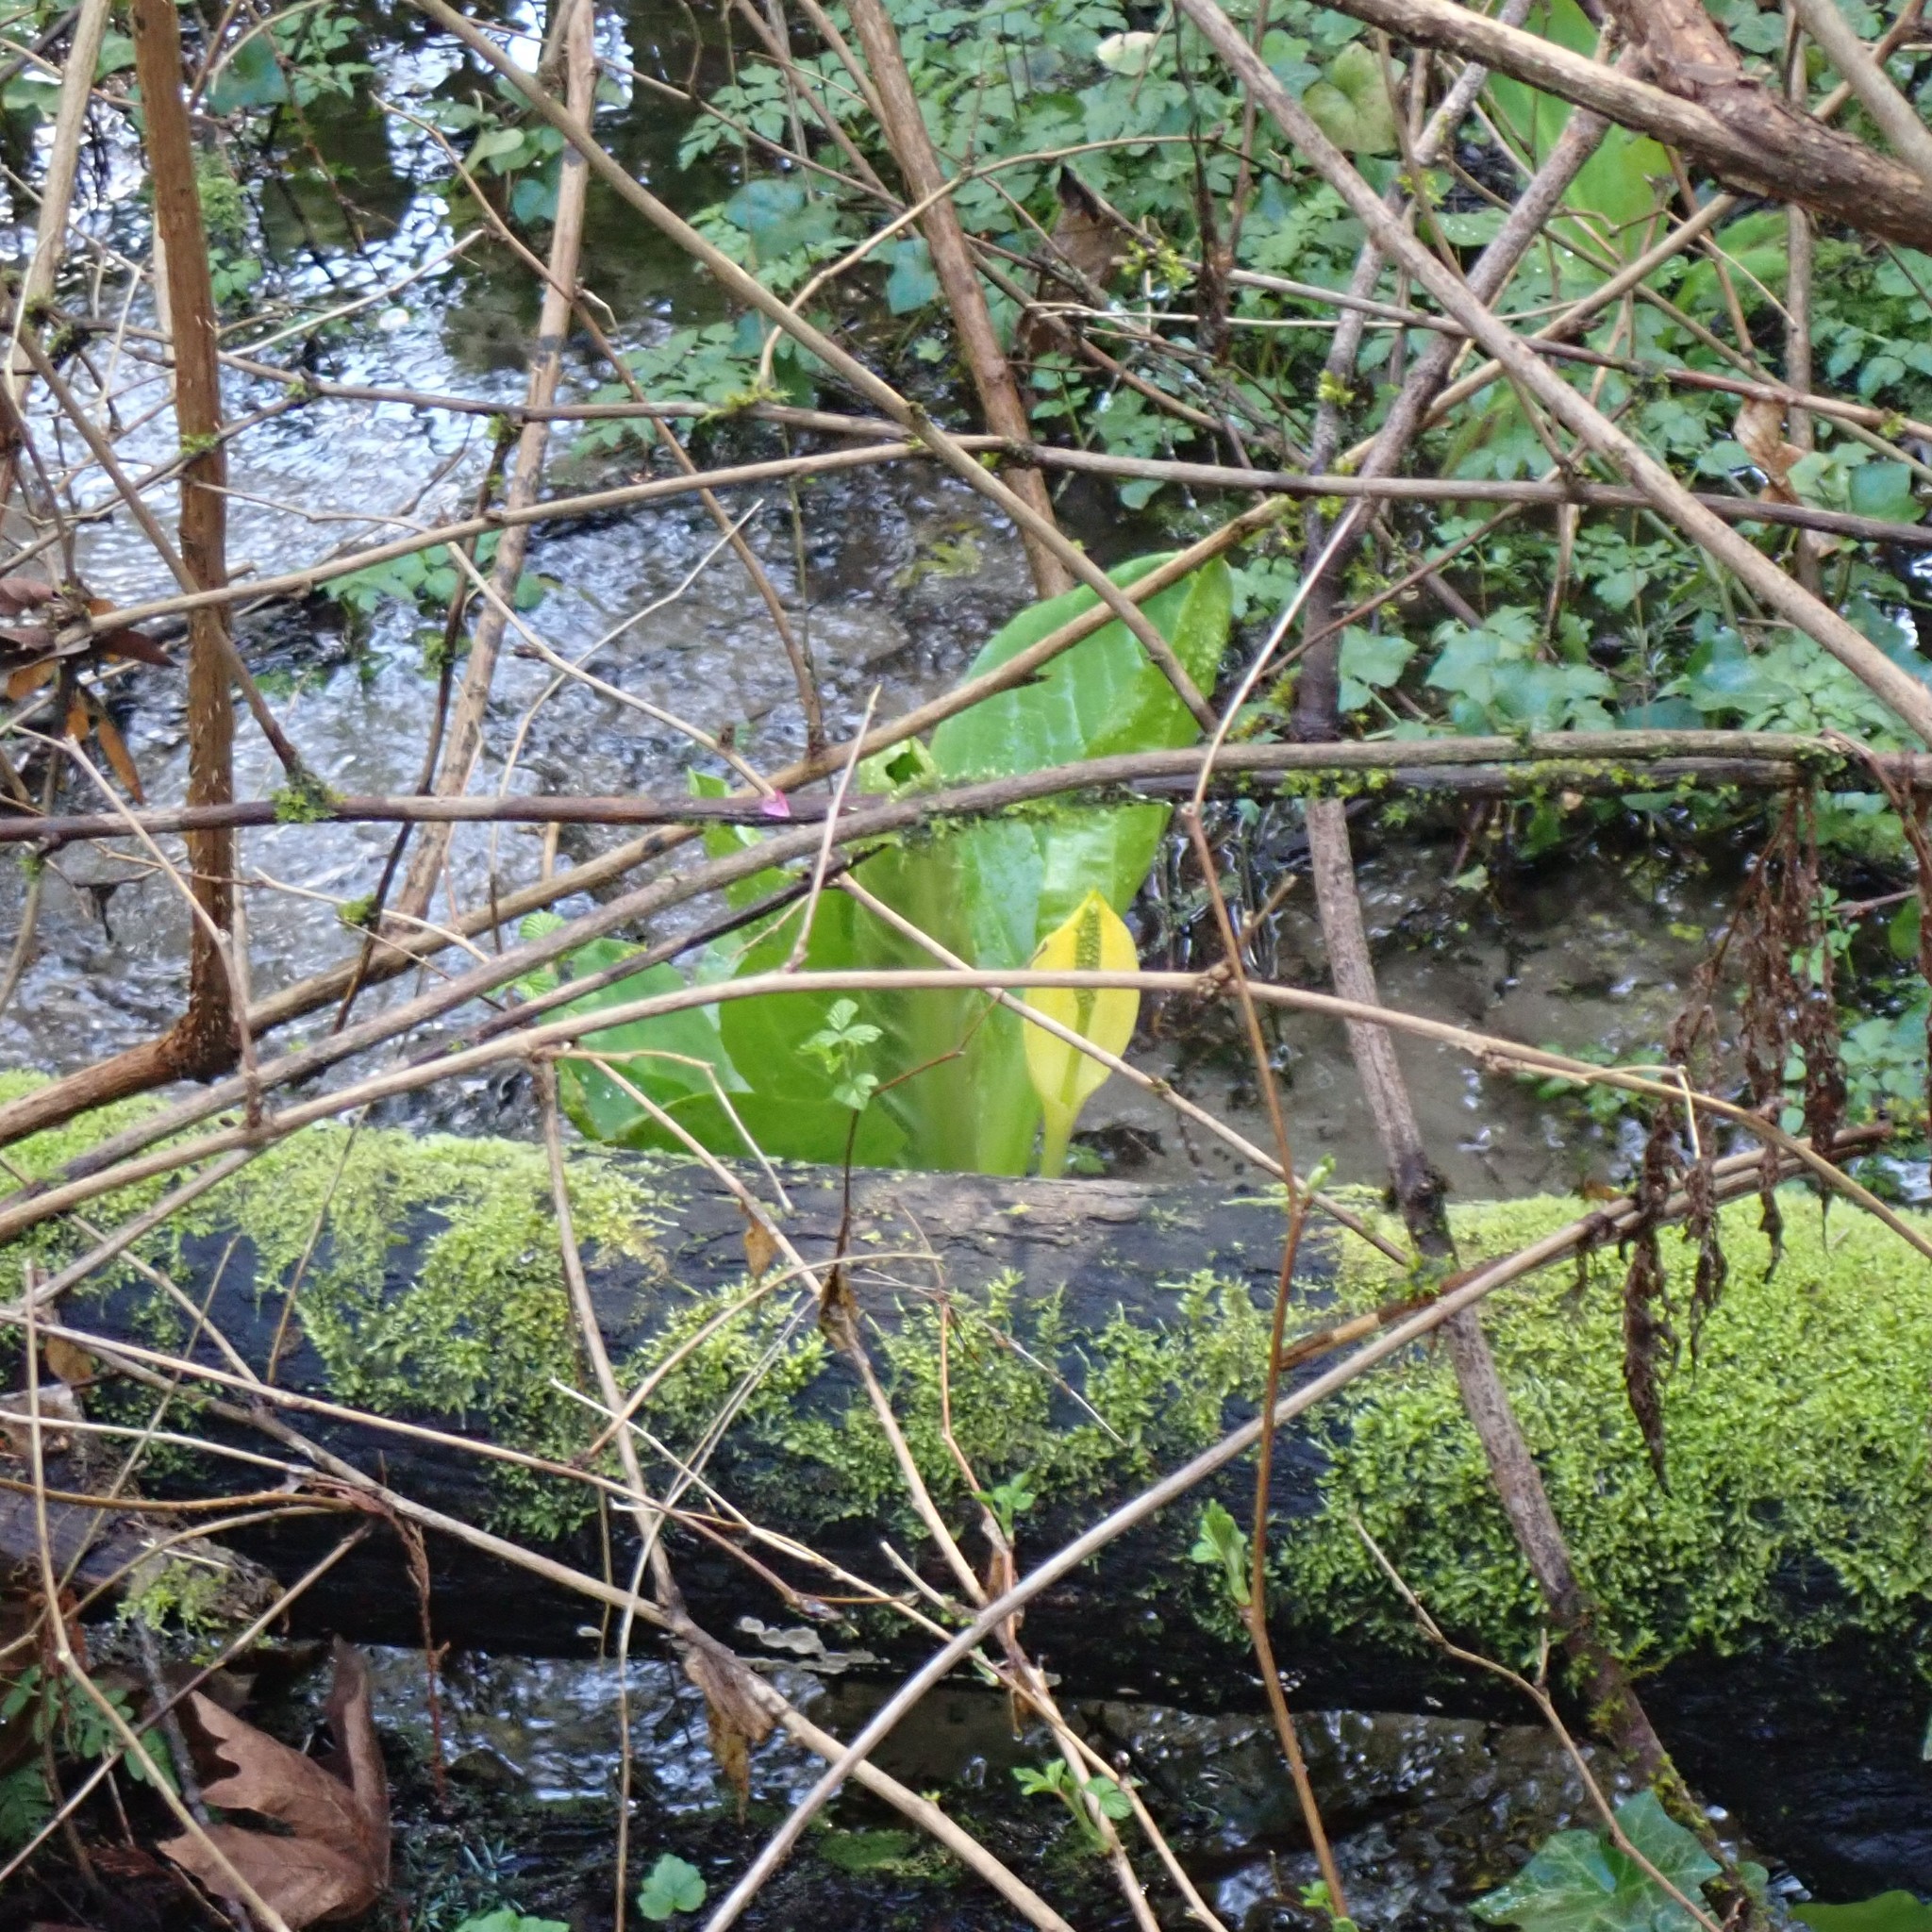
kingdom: Plantae
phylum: Tracheophyta
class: Liliopsida
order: Alismatales
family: Araceae
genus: Lysichiton
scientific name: Lysichiton americanus
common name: American skunk cabbage
